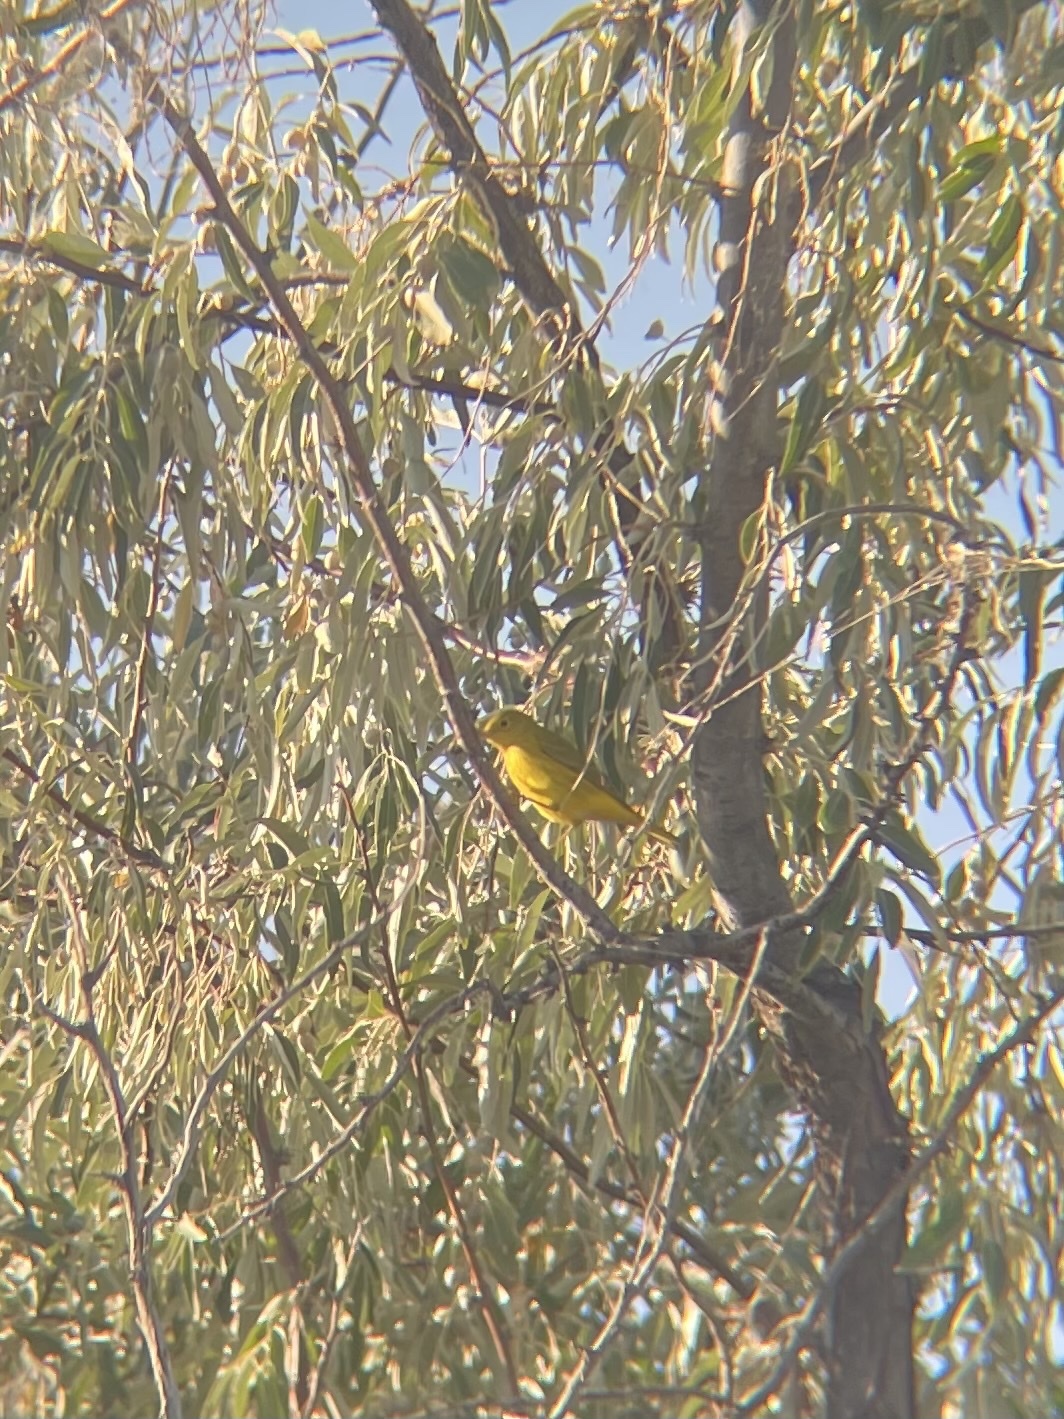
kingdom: Animalia
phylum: Chordata
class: Aves
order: Passeriformes
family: Parulidae
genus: Setophaga
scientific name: Setophaga petechia
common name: Yellow warbler
